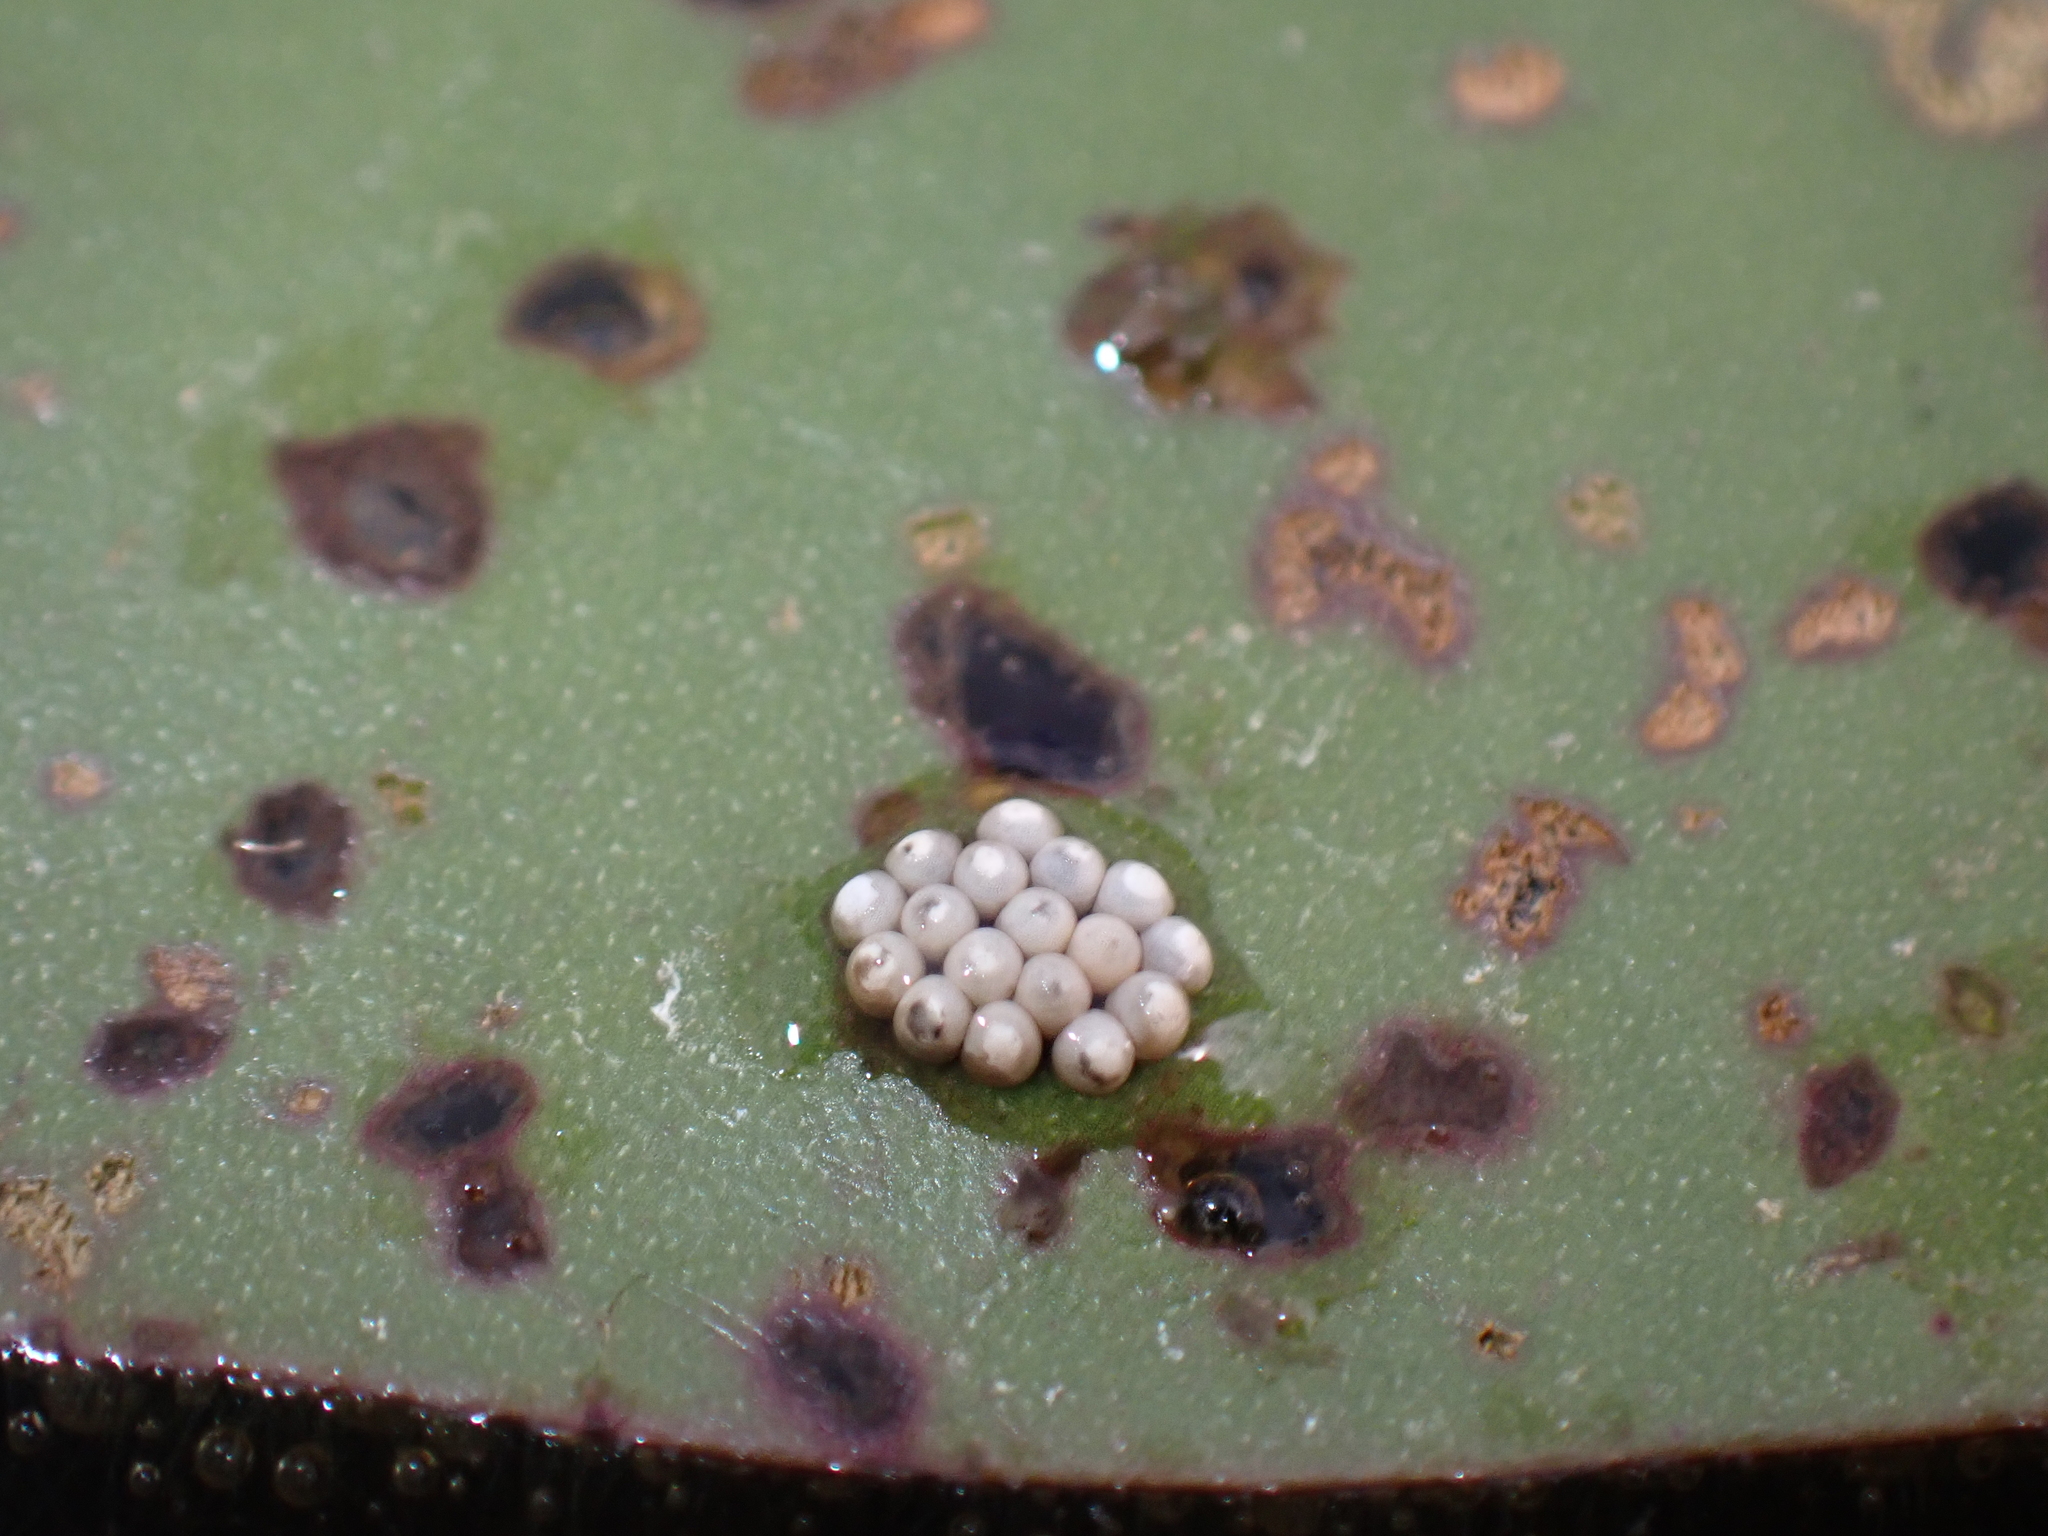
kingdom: Animalia
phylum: Arthropoda
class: Insecta
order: Coleoptera
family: Chrysomelidae
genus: Galerucella
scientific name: Galerucella nymphaeae
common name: Leaf beetle
